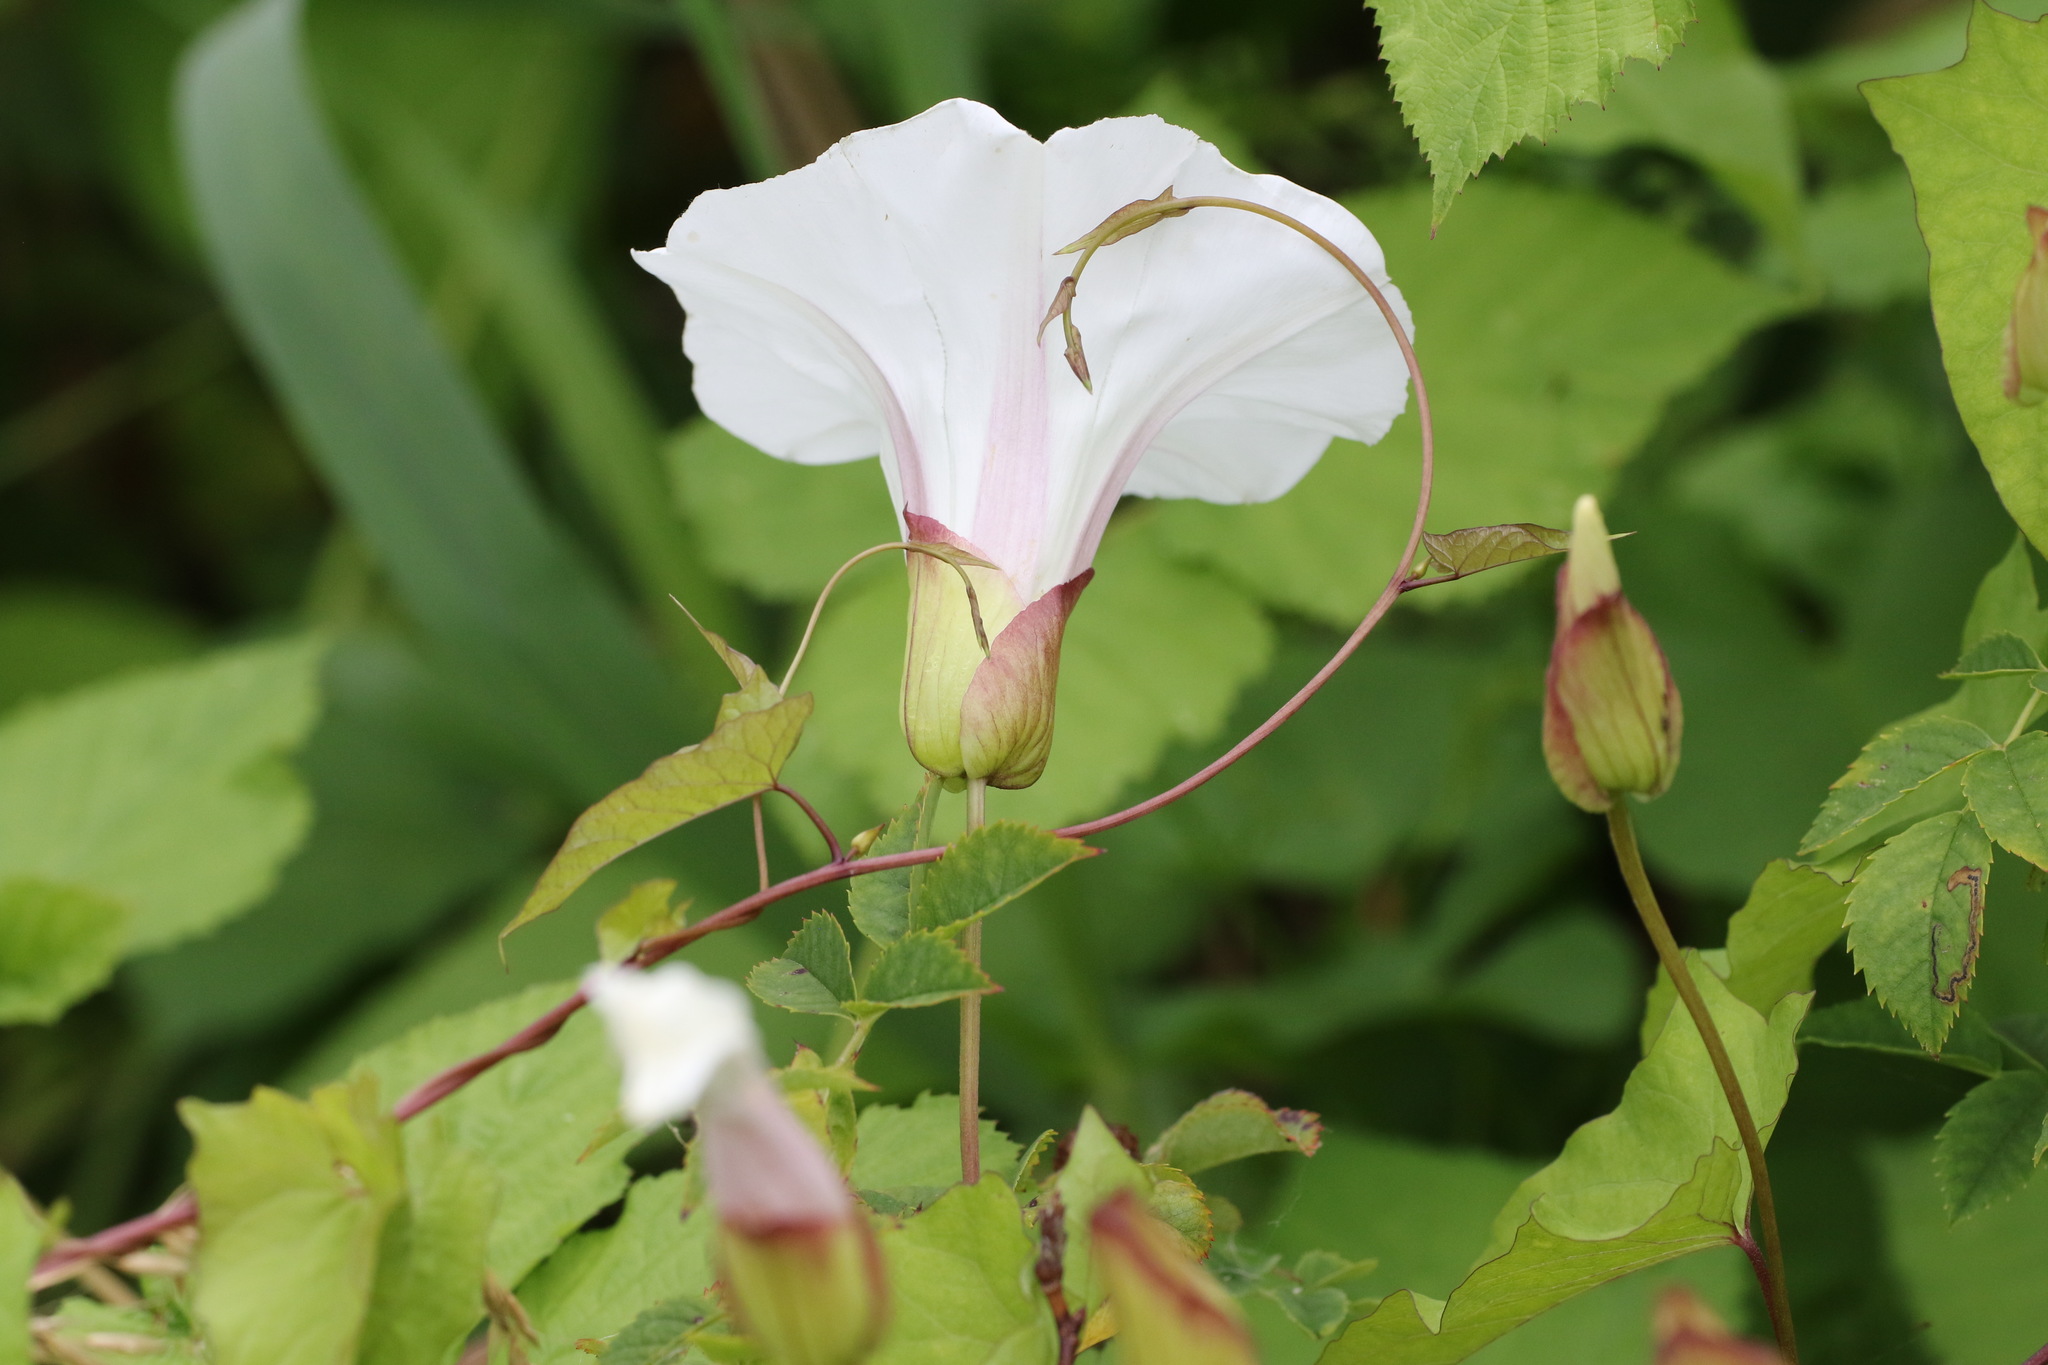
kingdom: Plantae
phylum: Tracheophyta
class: Magnoliopsida
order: Solanales
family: Convolvulaceae
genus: Calystegia
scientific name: Calystegia silvatica
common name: Large bindweed
